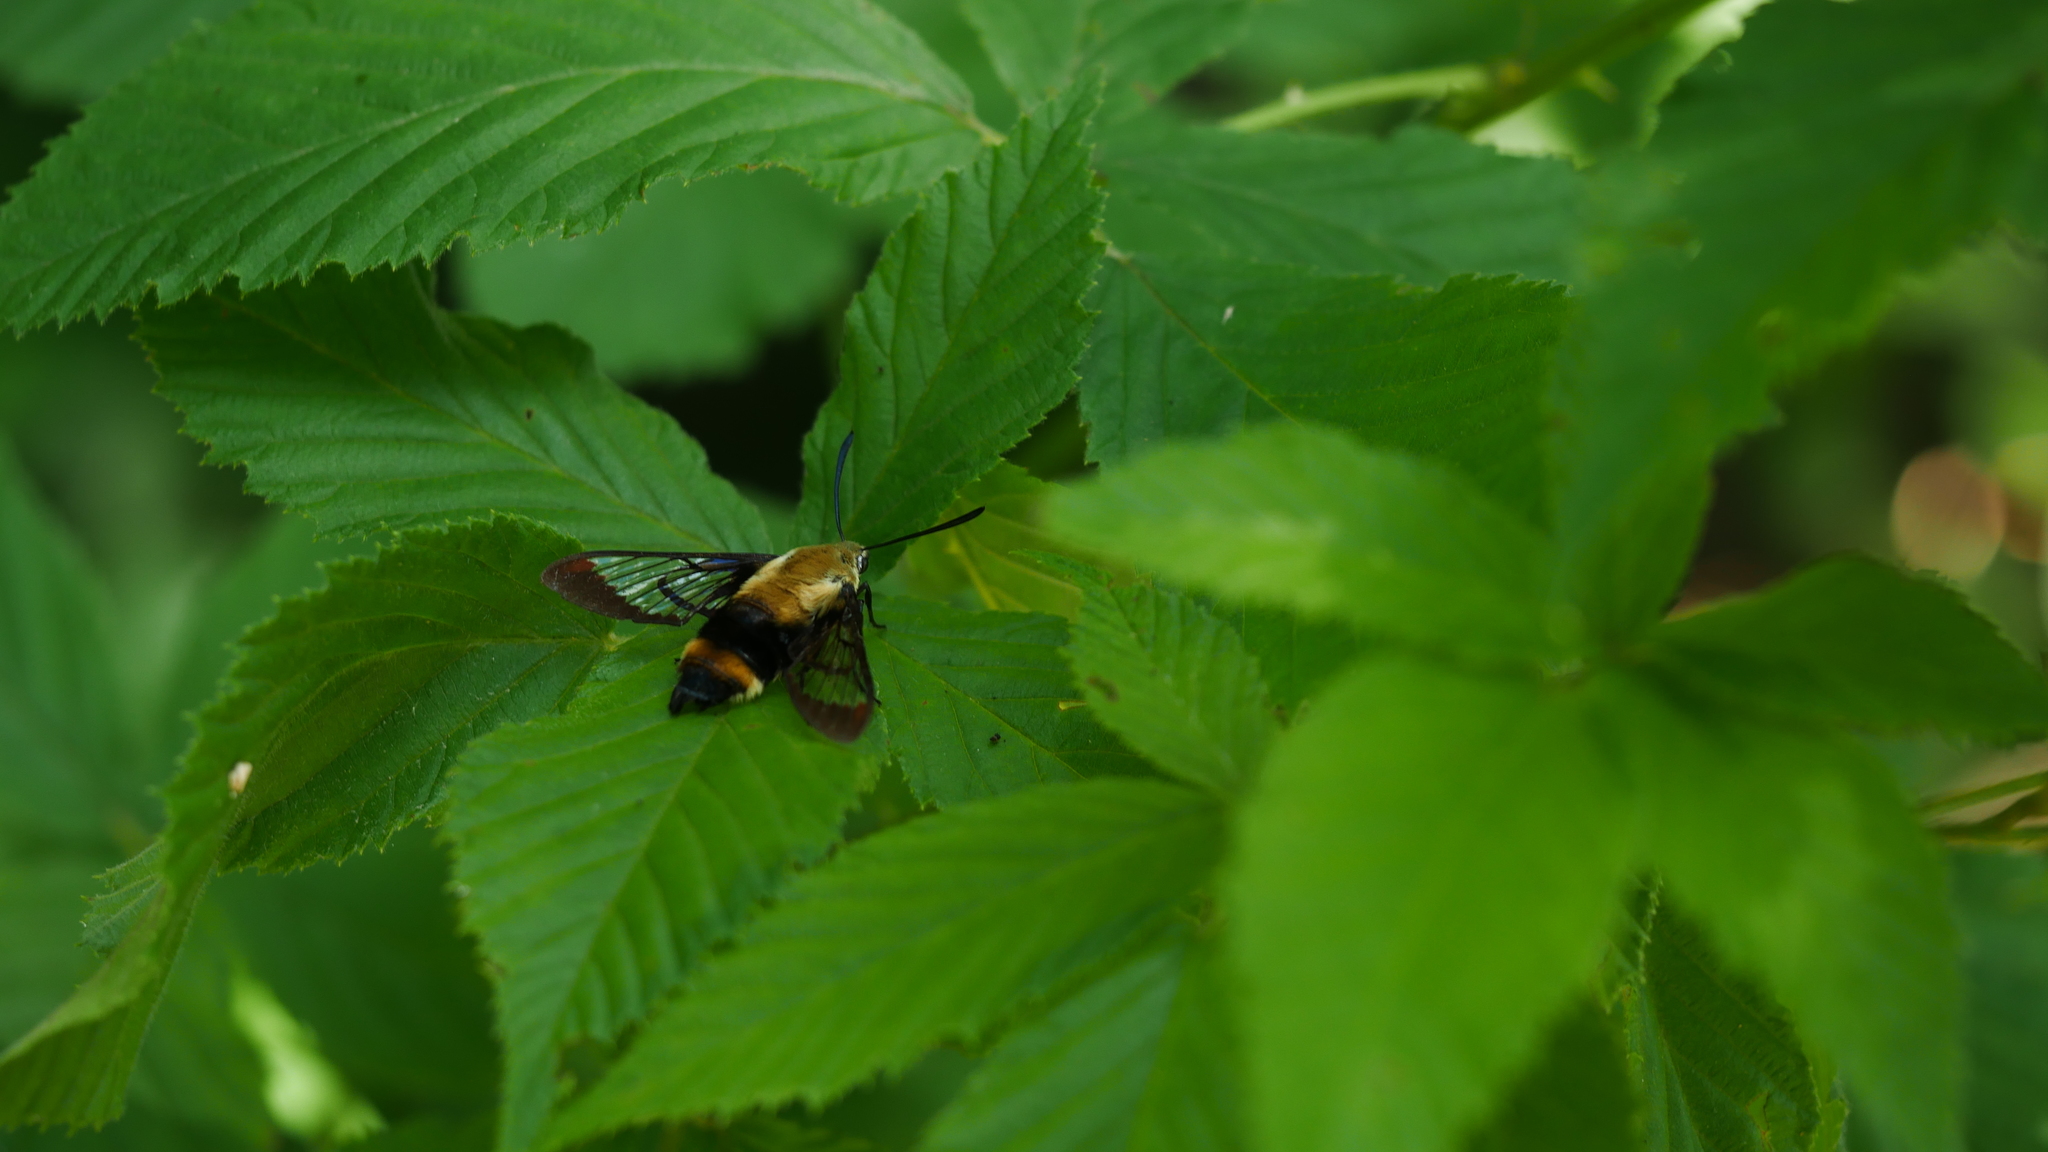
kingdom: Animalia
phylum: Arthropoda
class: Insecta
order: Lepidoptera
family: Sphingidae
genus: Hemaris
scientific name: Hemaris diffinis
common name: Bumblebee moth
